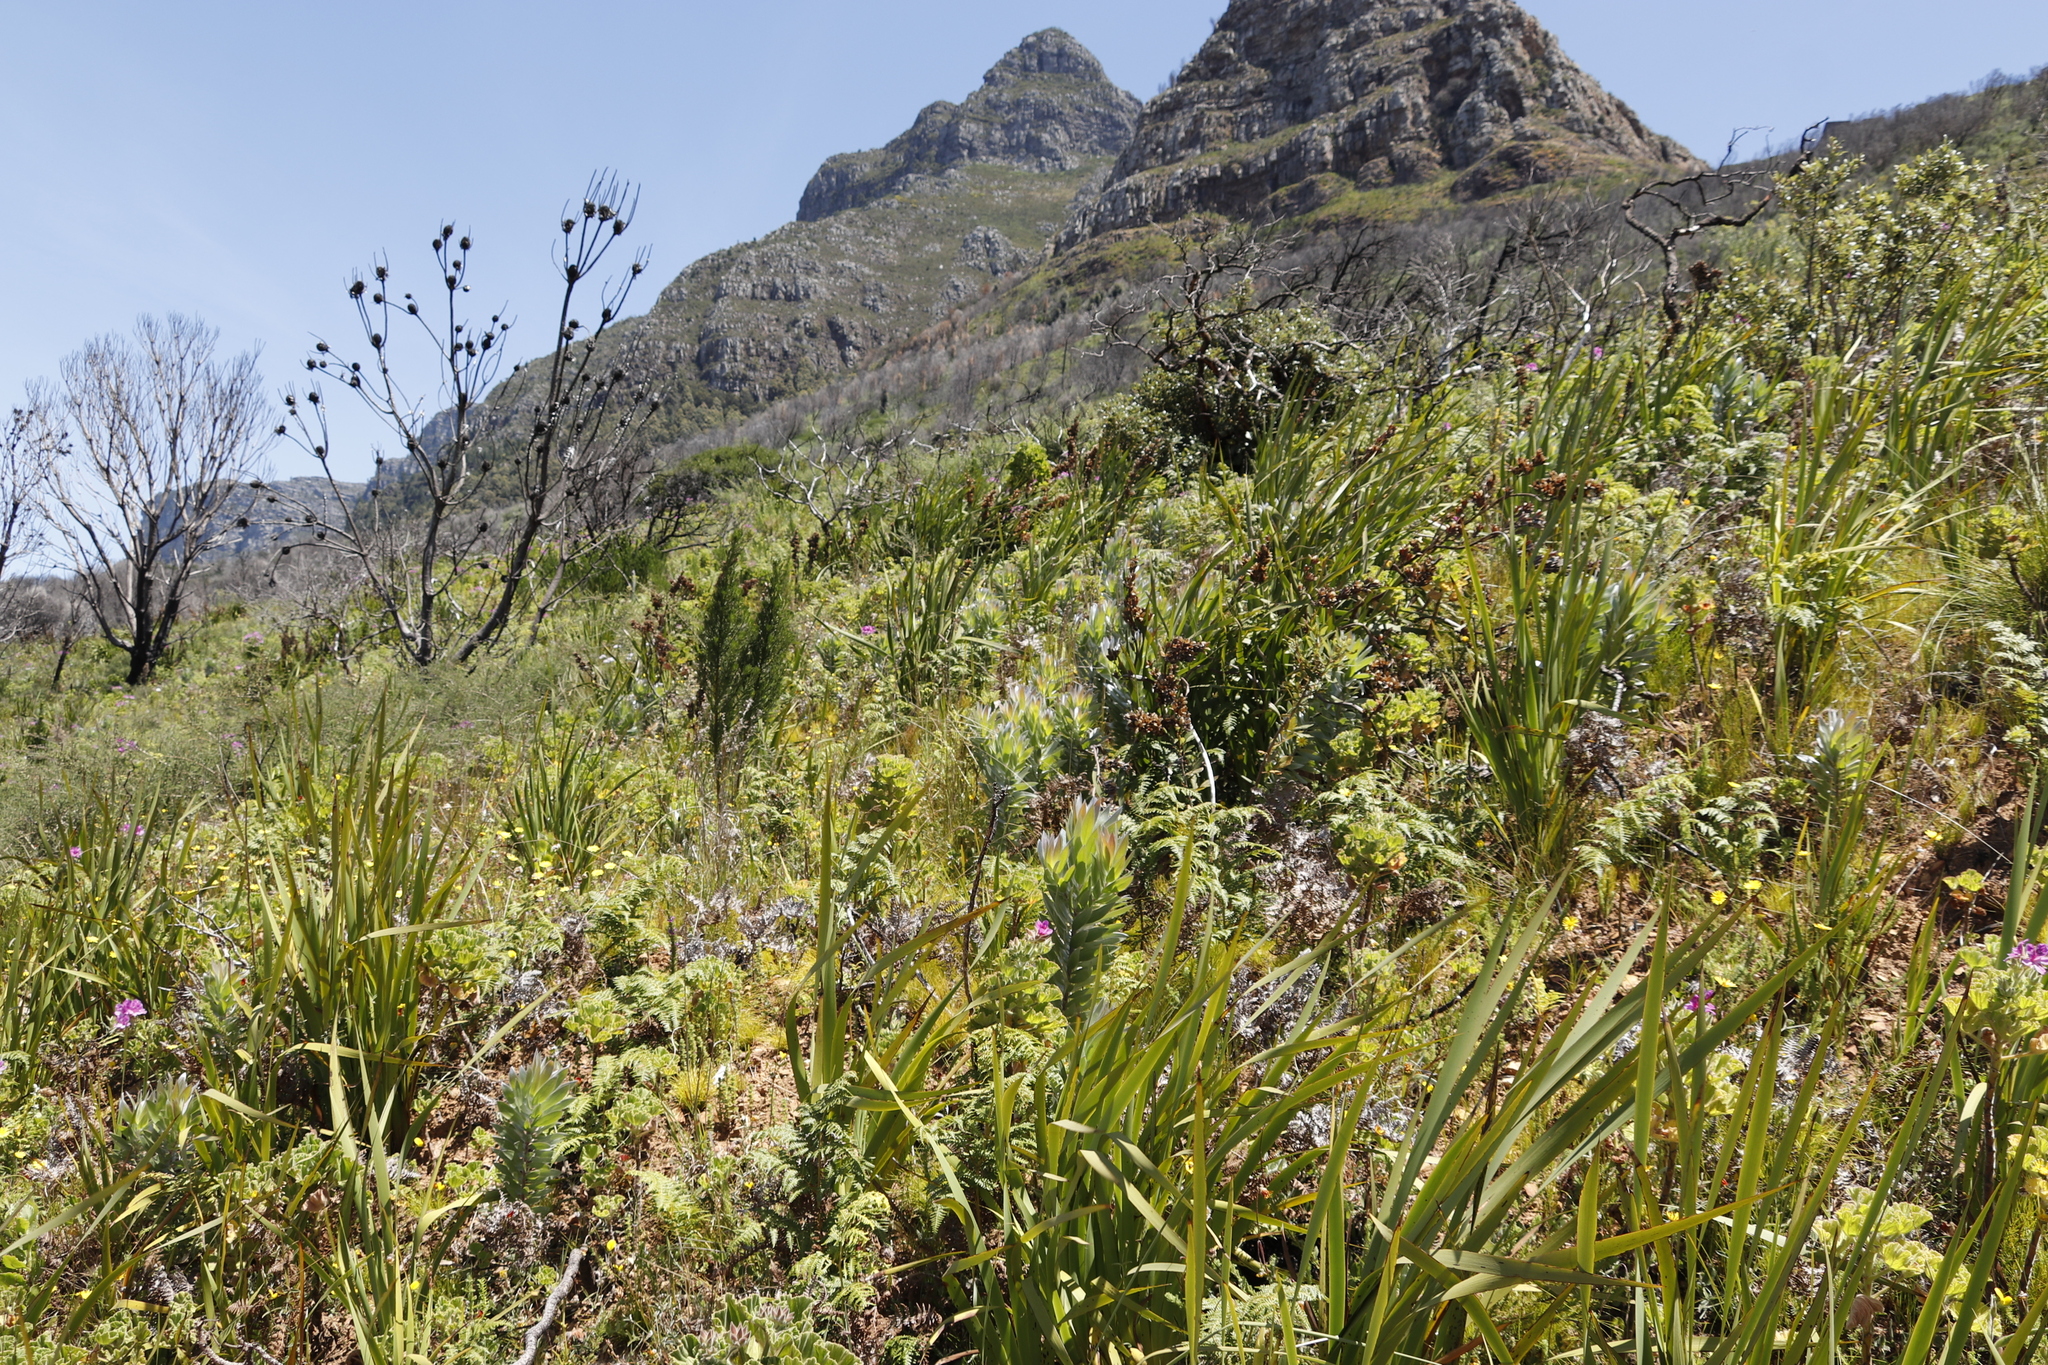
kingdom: Plantae
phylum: Tracheophyta
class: Magnoliopsida
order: Proteales
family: Proteaceae
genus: Leucadendron
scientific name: Leucadendron argenteum
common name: Cape silver tree
